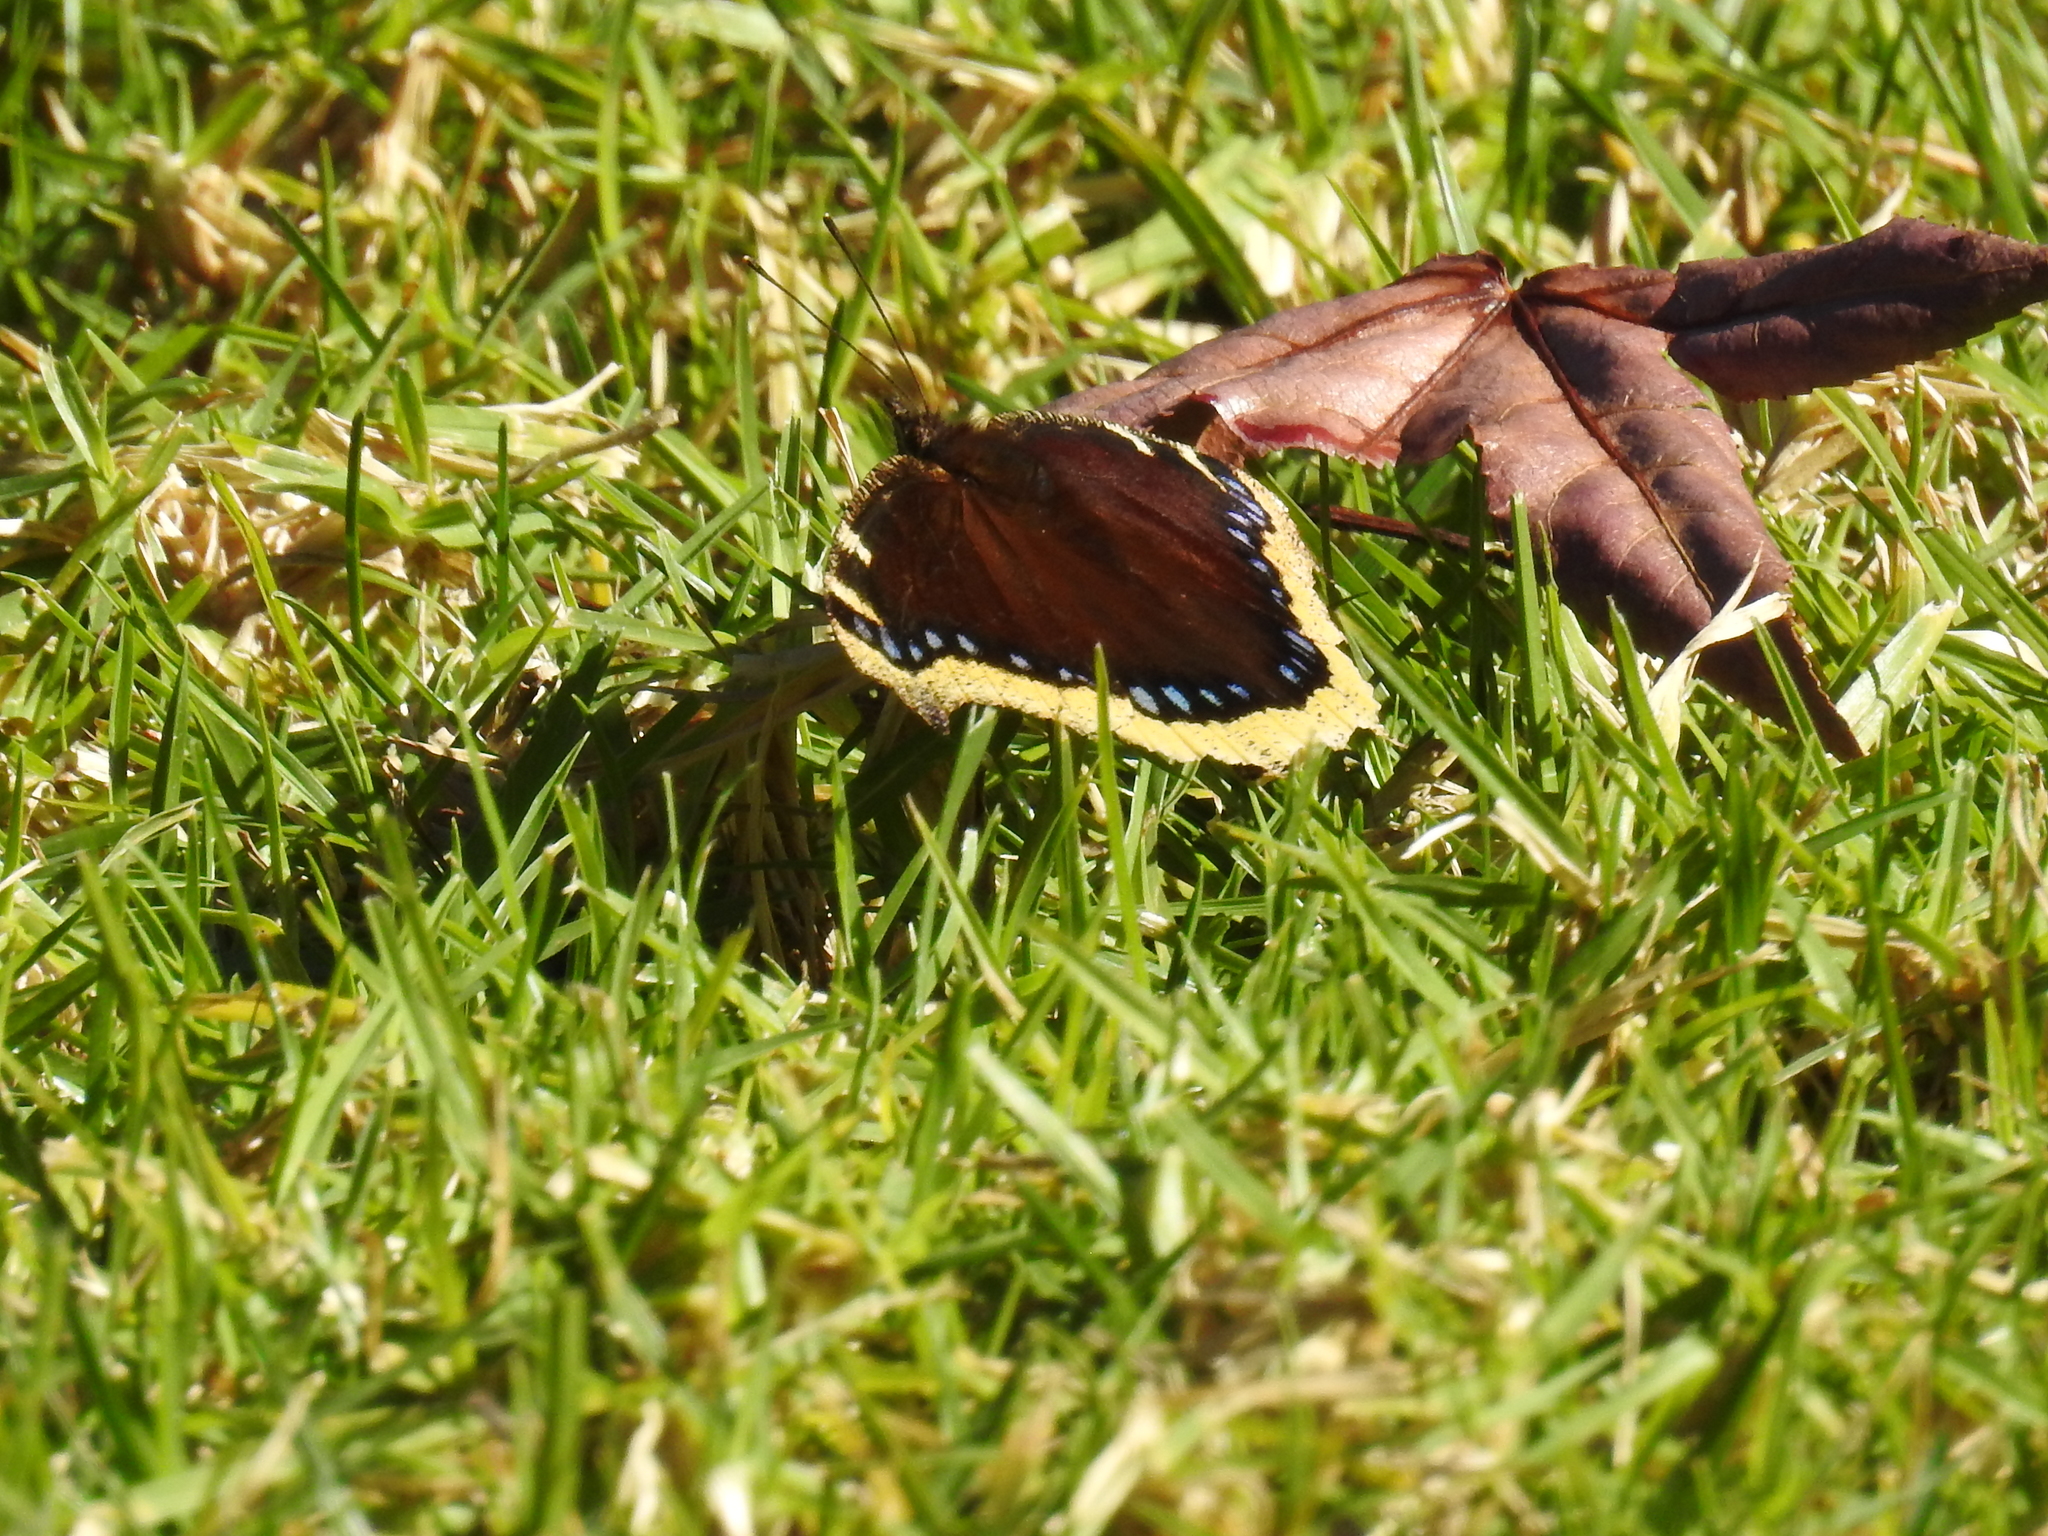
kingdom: Animalia
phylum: Arthropoda
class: Insecta
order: Lepidoptera
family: Nymphalidae
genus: Nymphalis
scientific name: Nymphalis antiopa
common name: Camberwell beauty
